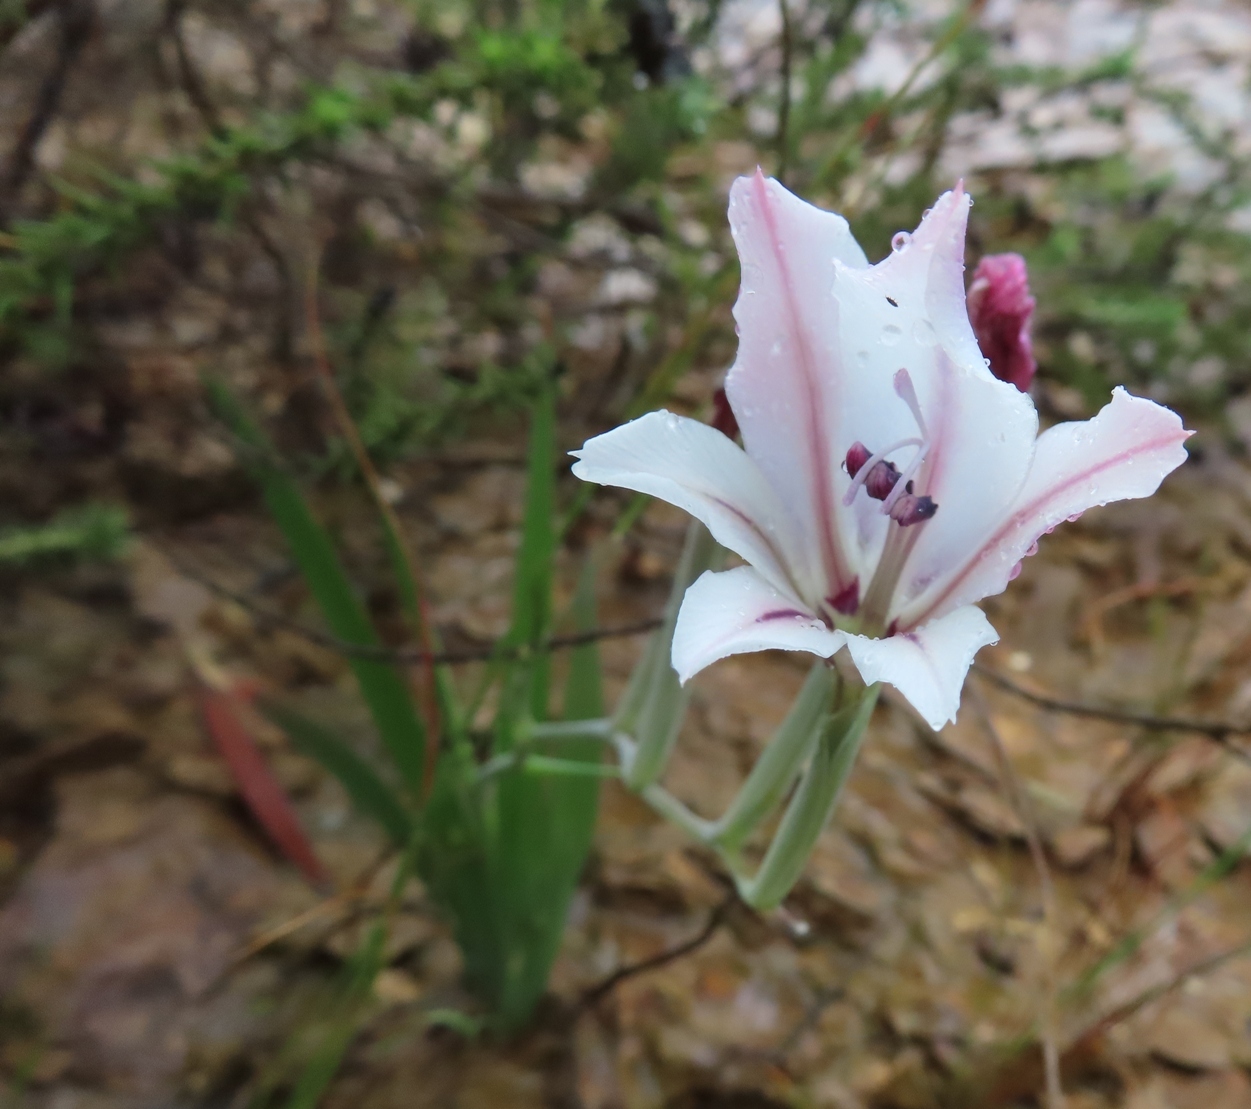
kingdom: Plantae
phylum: Tracheophyta
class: Liliopsida
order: Asparagales
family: Iridaceae
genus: Gladiolus
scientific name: Gladiolus floribundus
